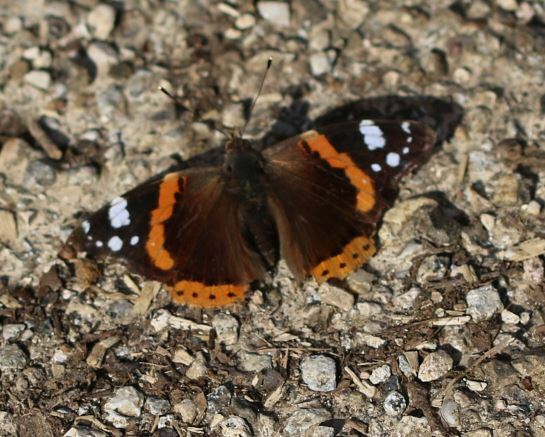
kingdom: Animalia
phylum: Arthropoda
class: Insecta
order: Lepidoptera
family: Nymphalidae
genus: Vanessa
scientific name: Vanessa atalanta
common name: Red admiral
